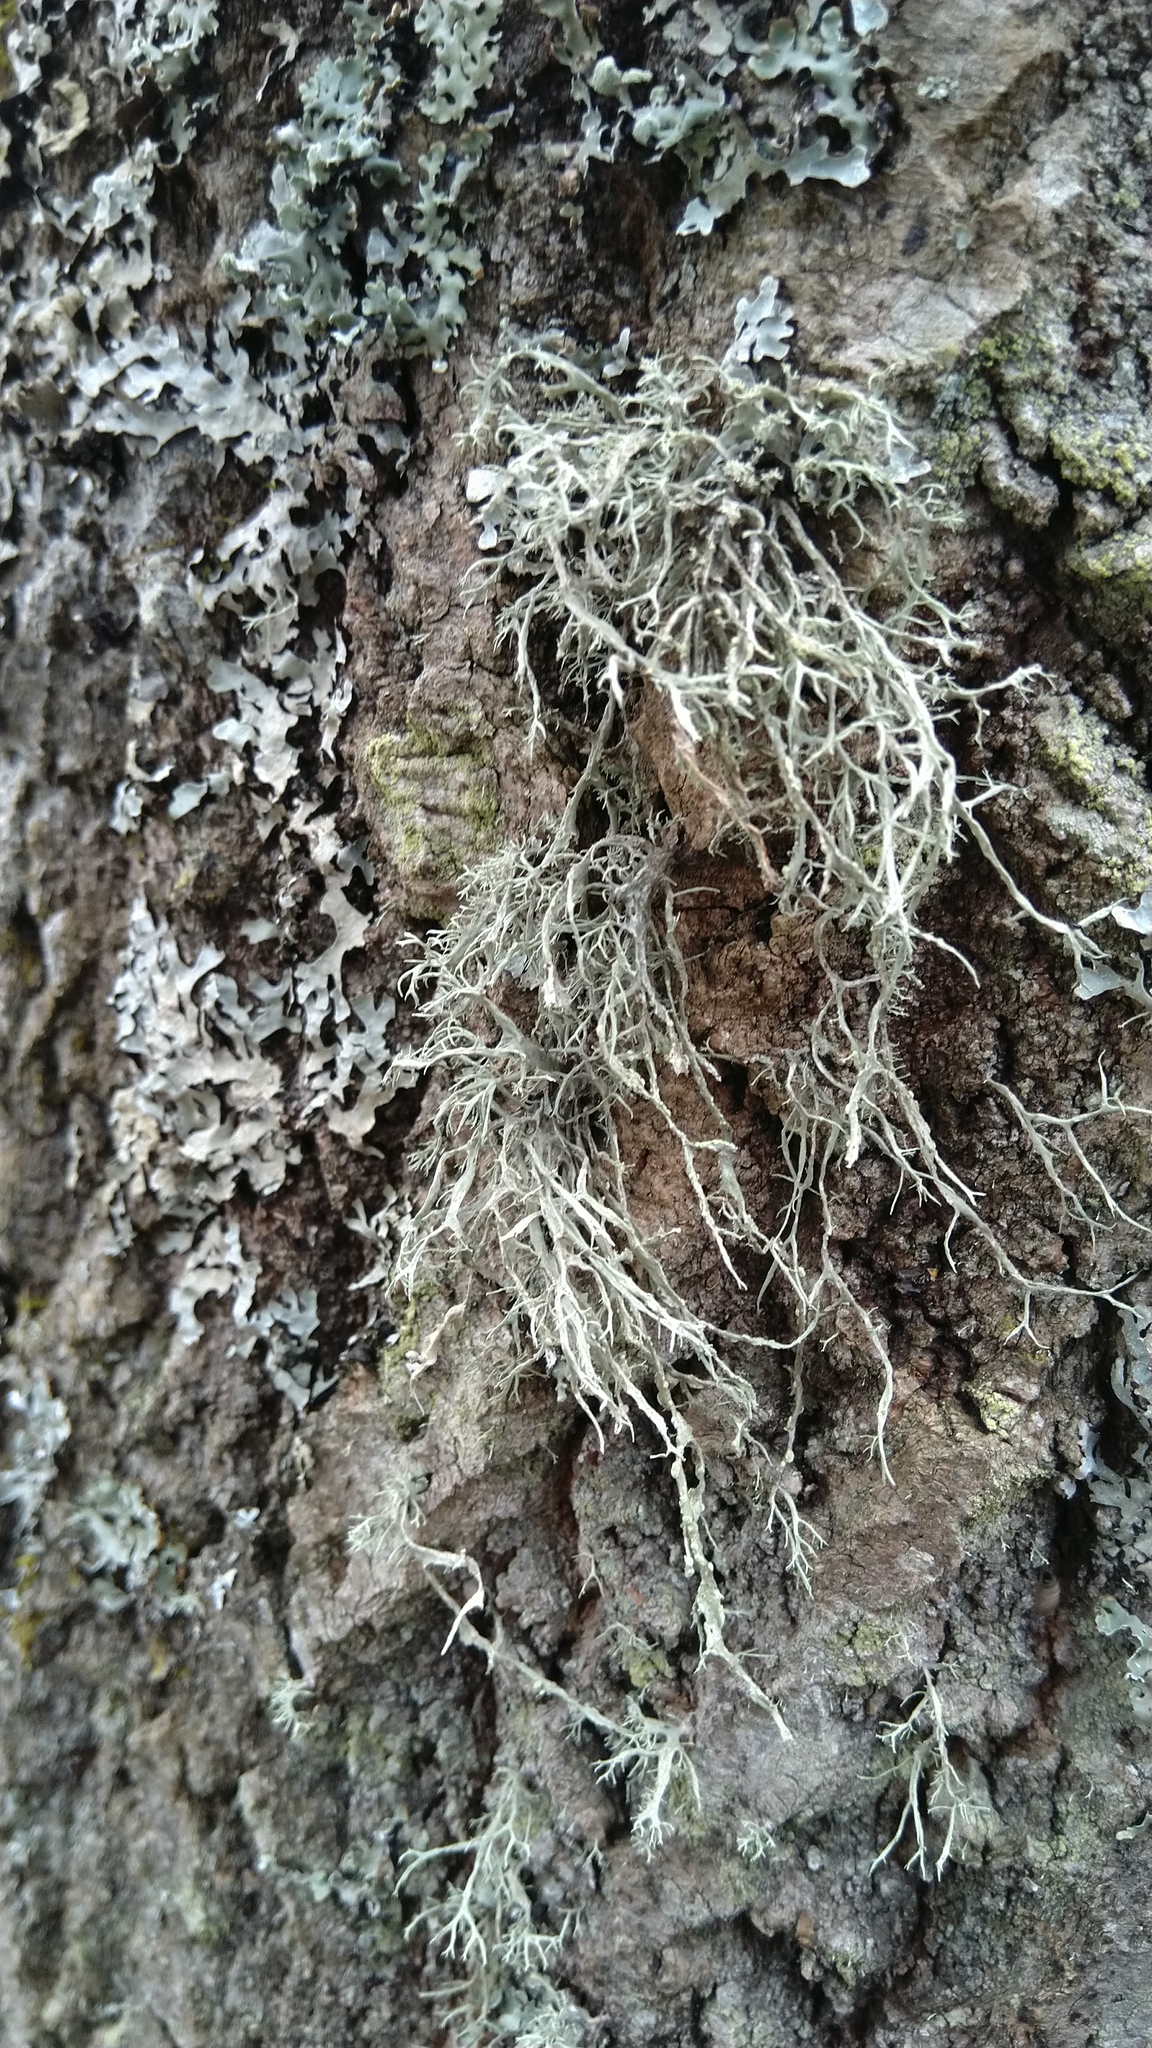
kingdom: Fungi
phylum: Ascomycota
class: Lecanoromycetes
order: Lecanorales
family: Ramalinaceae
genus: Ramalina
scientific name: Ramalina farinacea
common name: Farinose cartilage lichen
